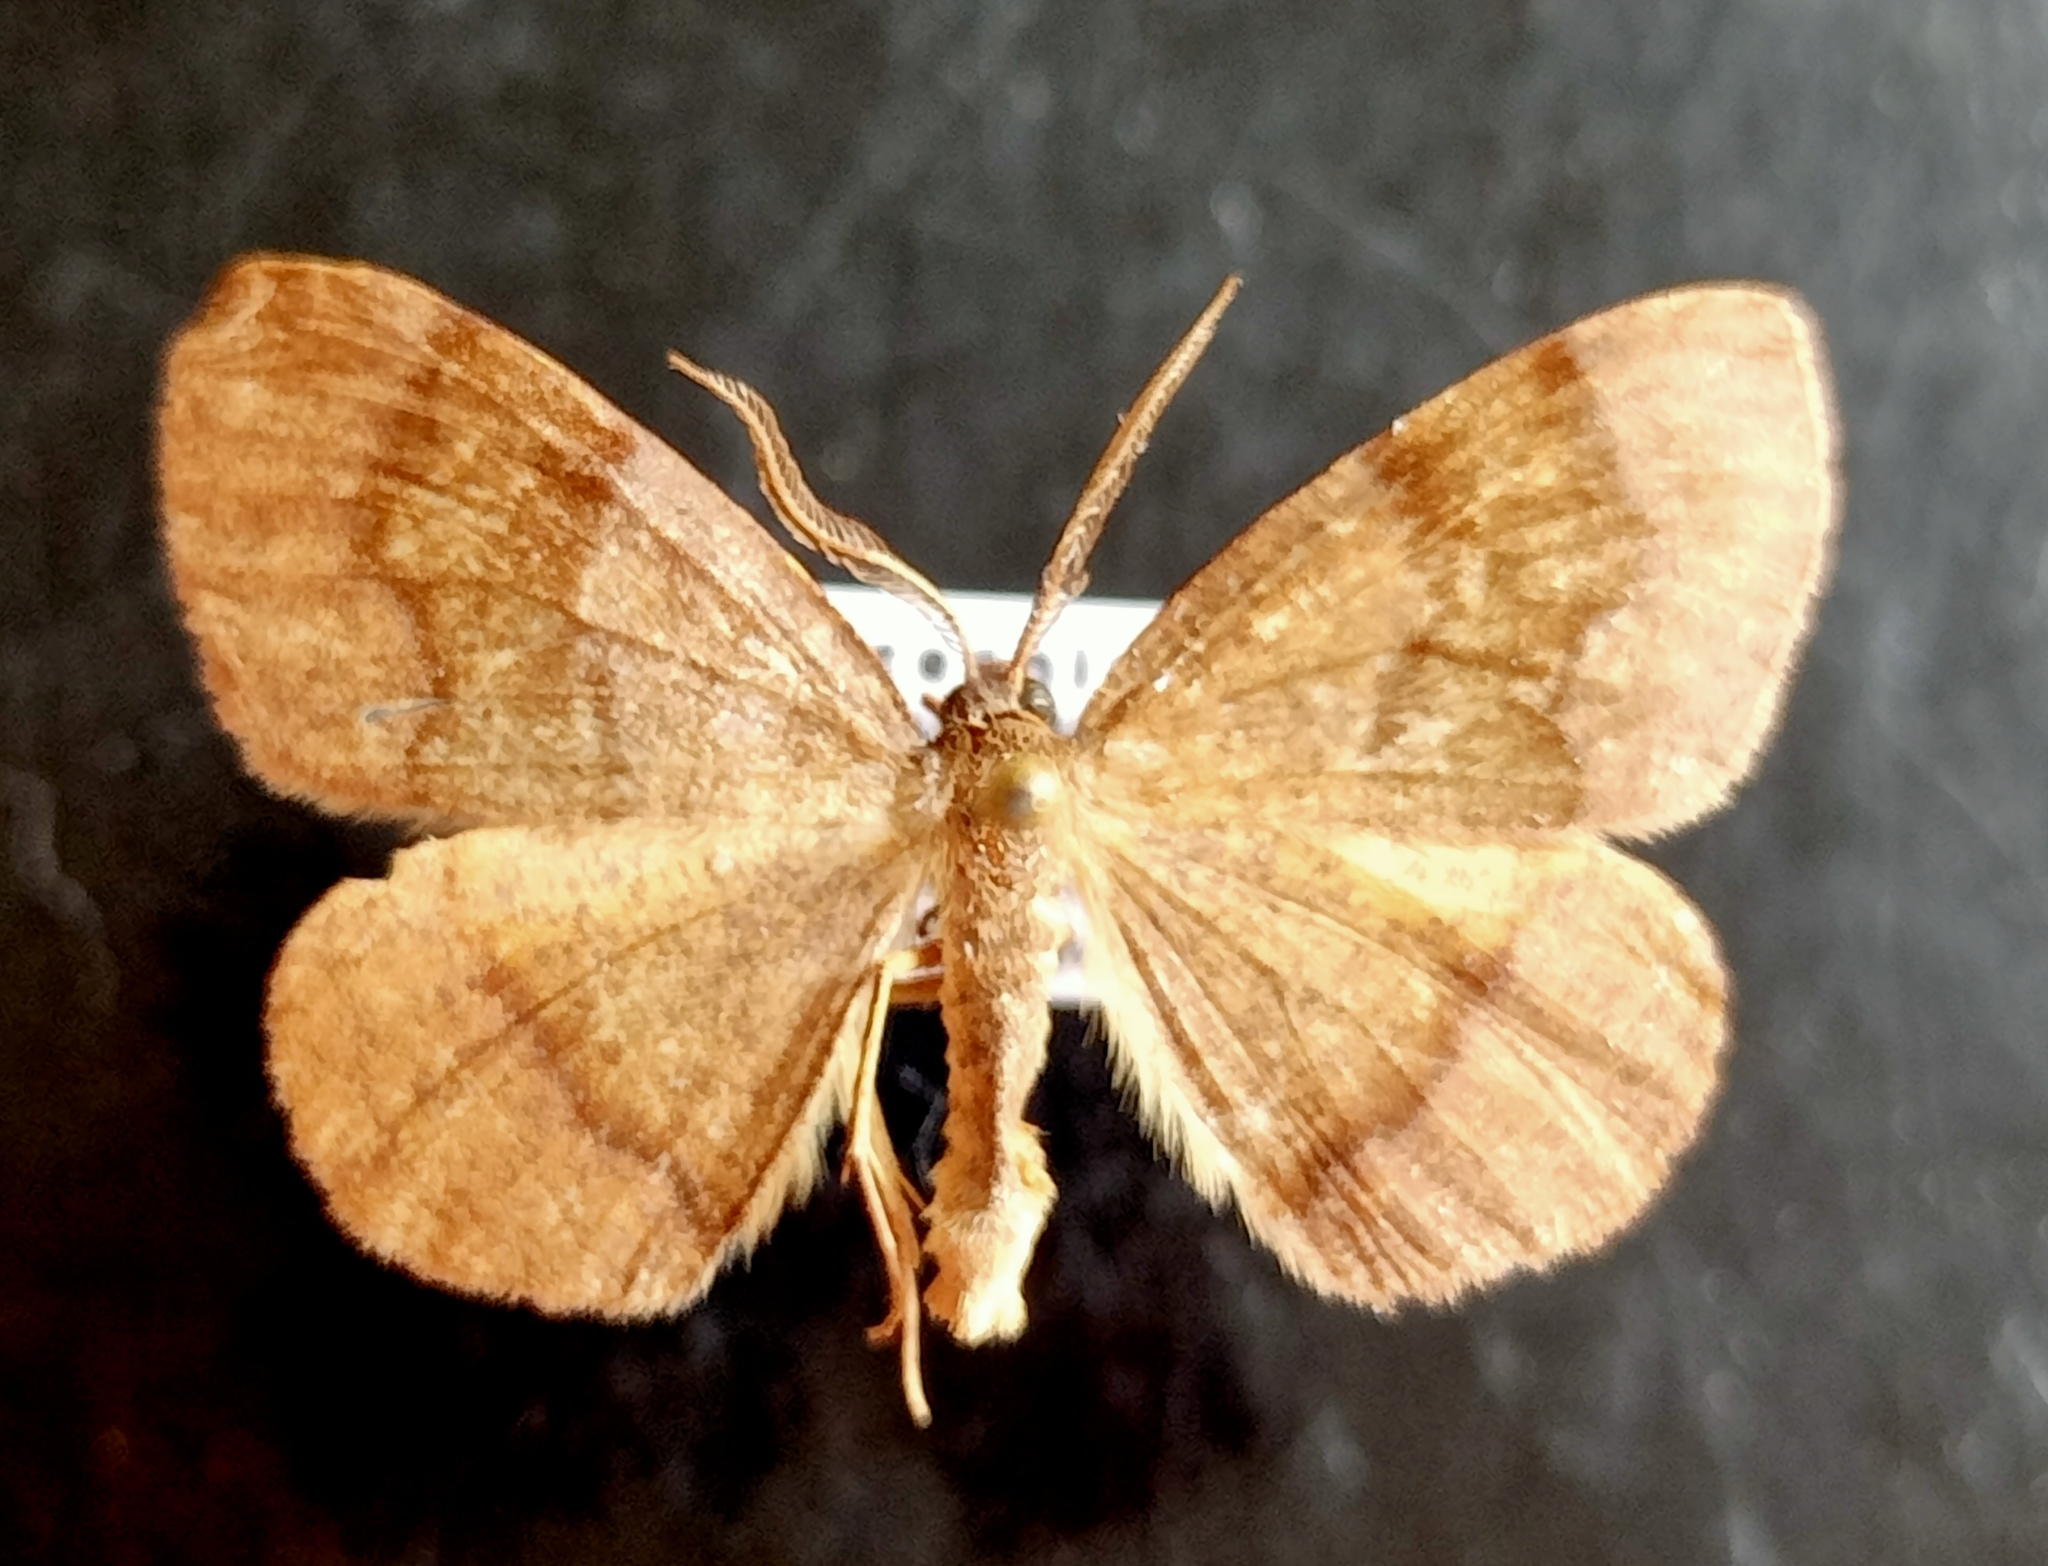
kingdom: Animalia
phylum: Arthropoda
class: Insecta
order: Lepidoptera
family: Geometridae
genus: Plagodis
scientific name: Plagodis pulveraria
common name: Barred umber
